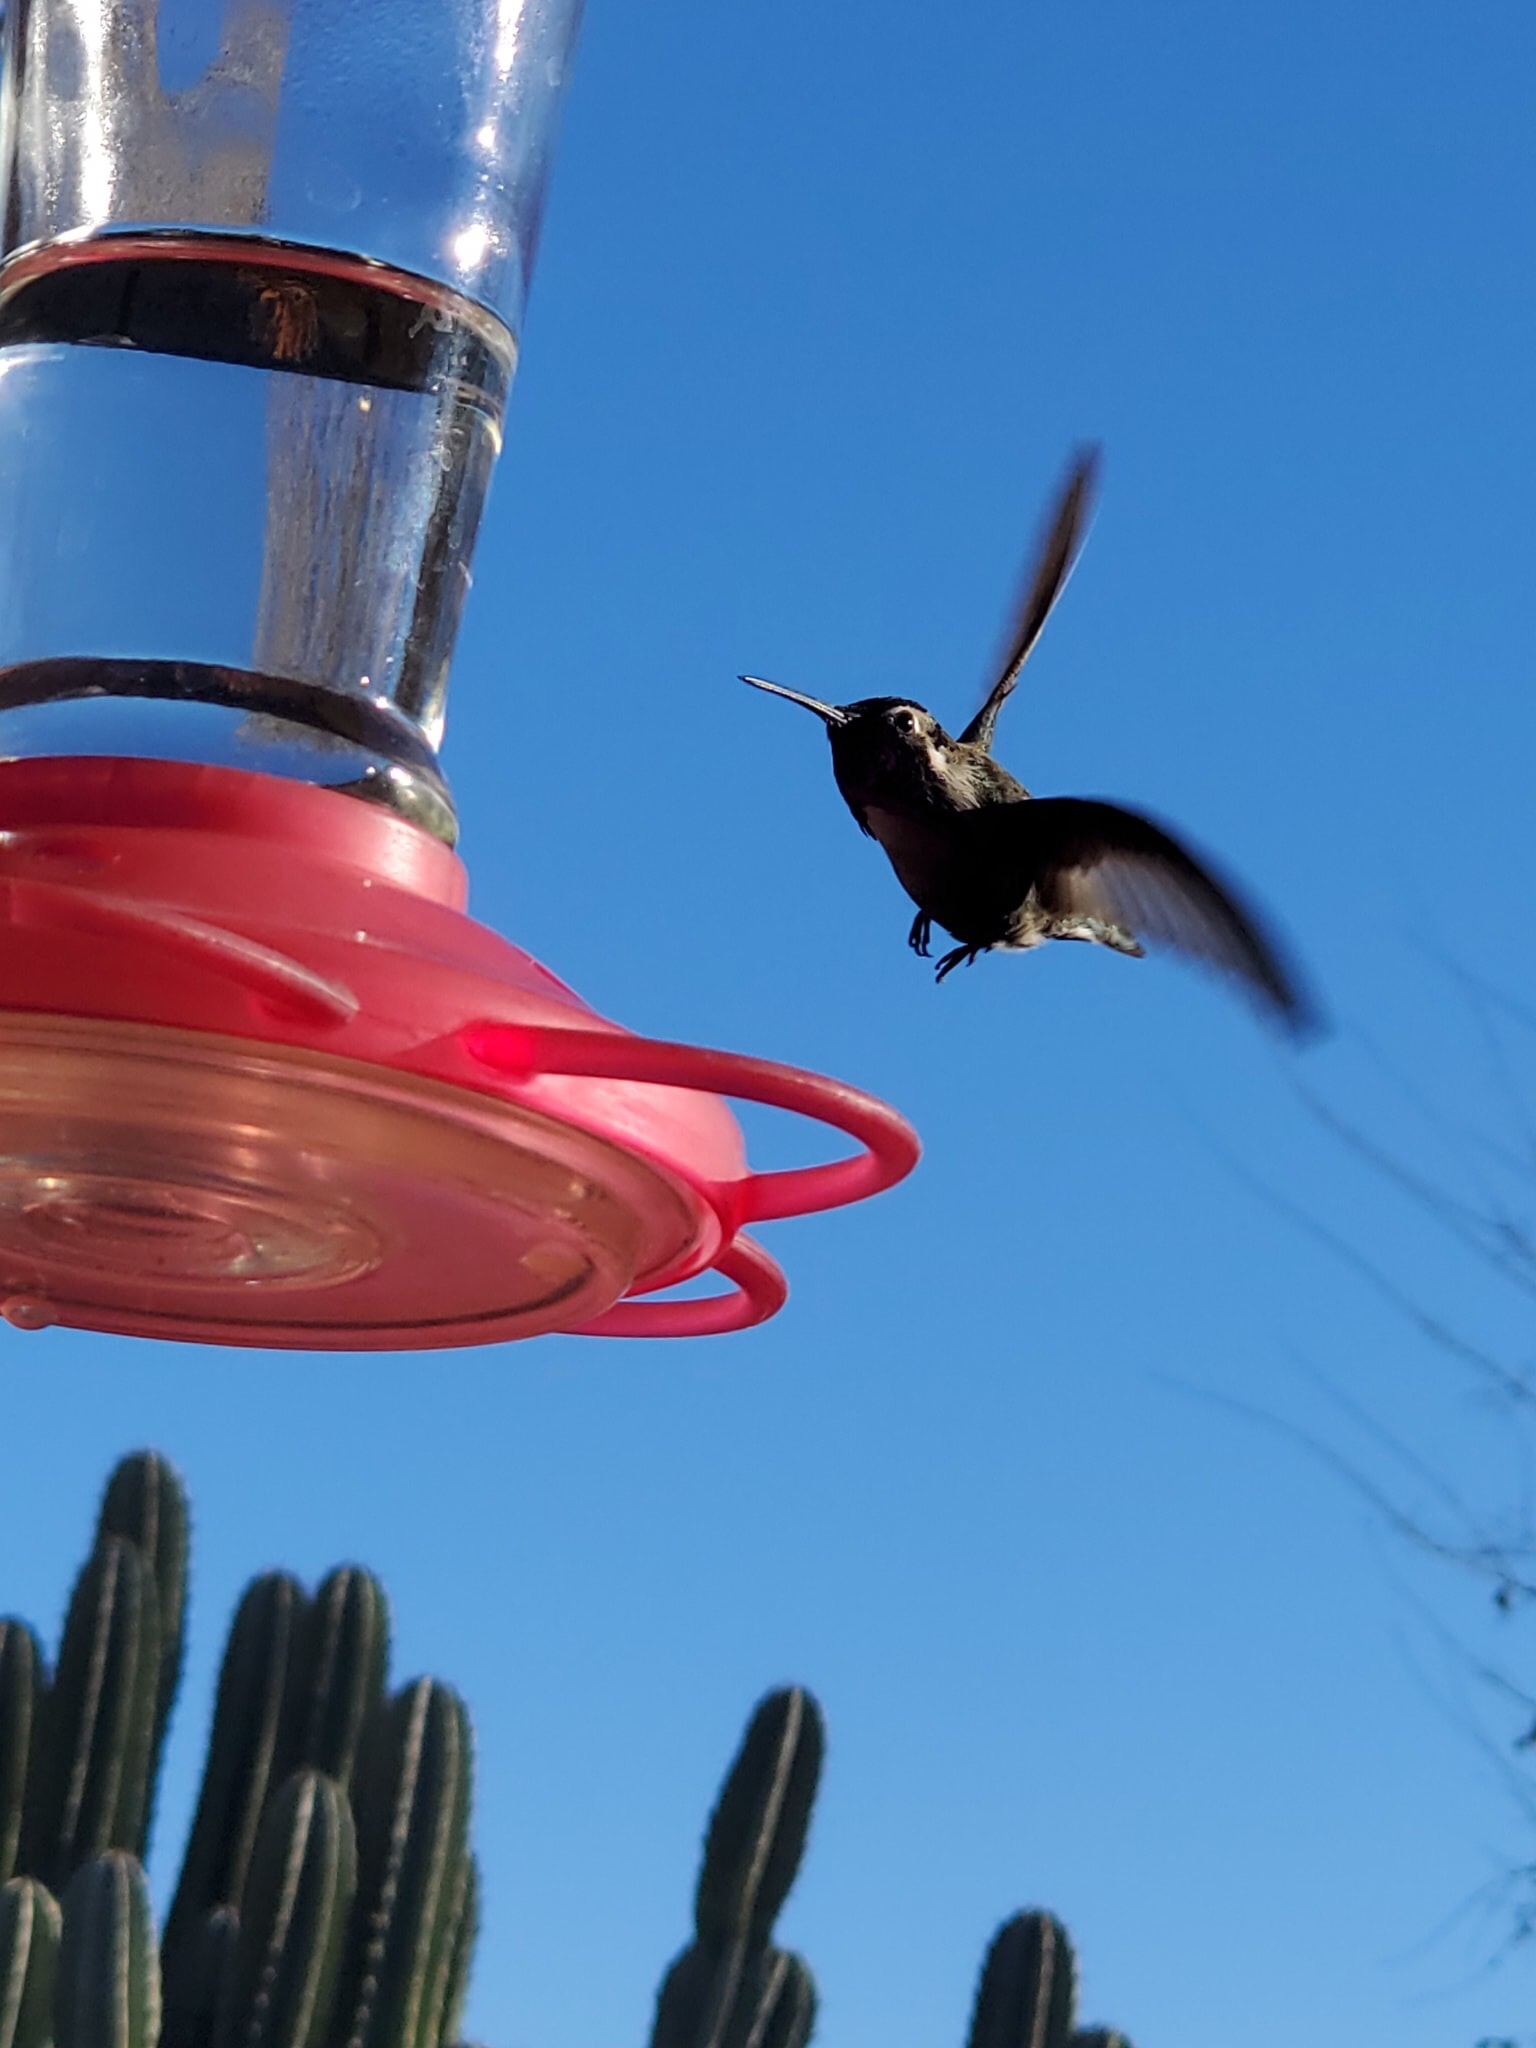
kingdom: Animalia
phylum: Chordata
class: Aves
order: Apodiformes
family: Trochilidae
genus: Calypte
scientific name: Calypte costae
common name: Costa's hummingbird
